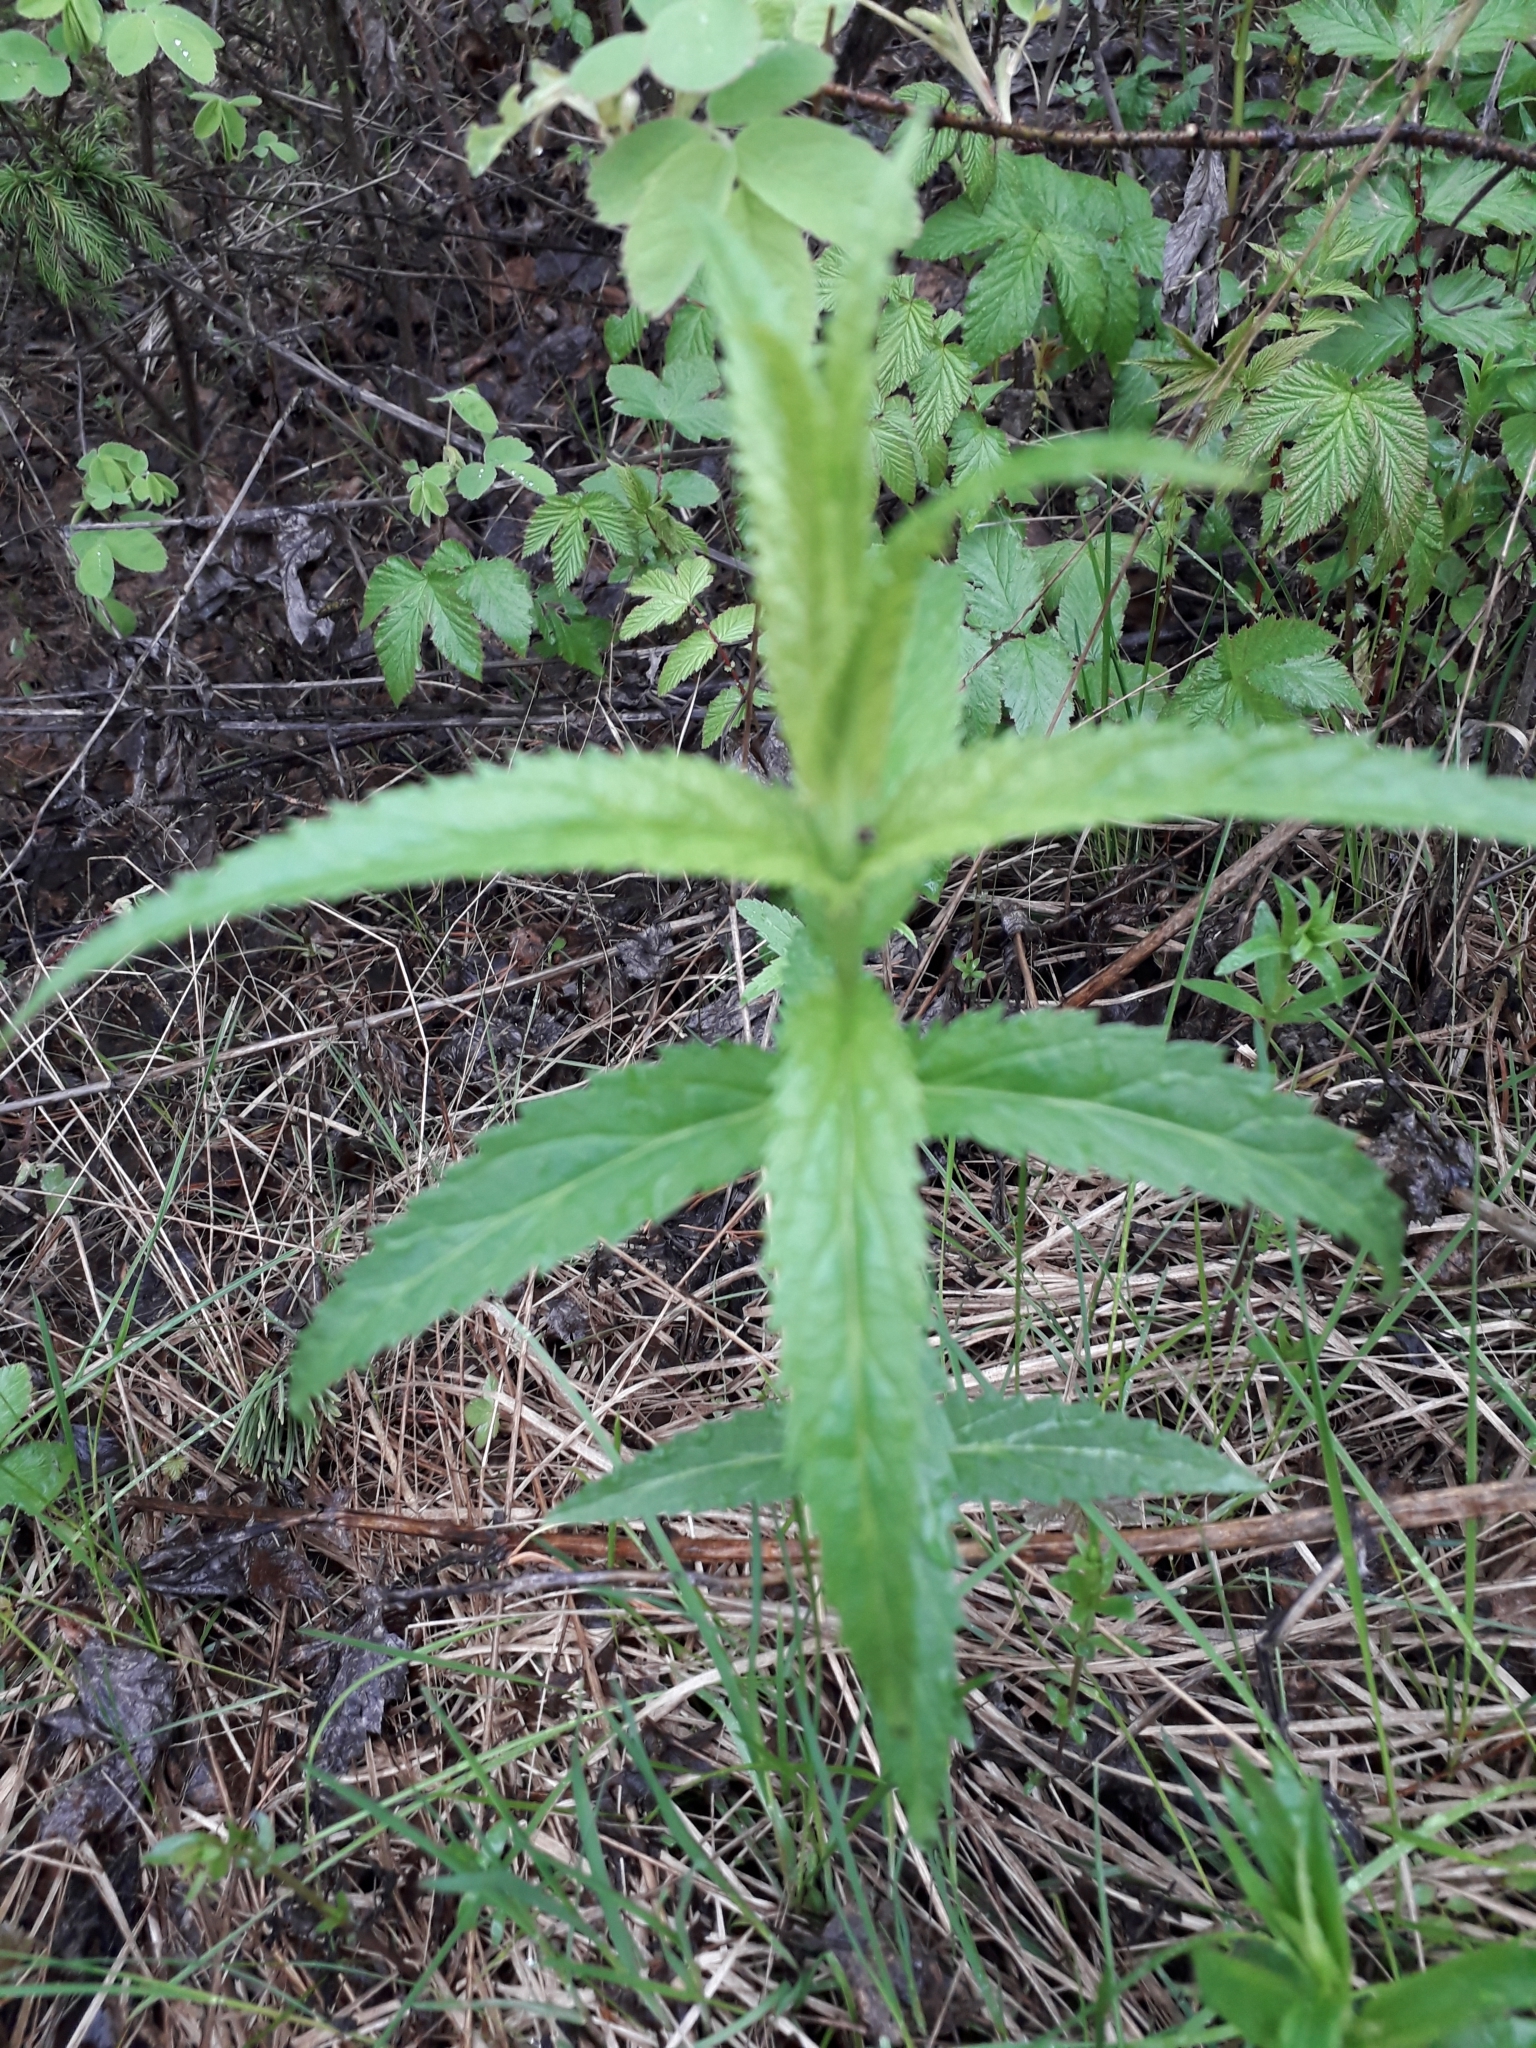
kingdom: Plantae
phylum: Tracheophyta
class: Magnoliopsida
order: Lamiales
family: Plantaginaceae
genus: Veronica
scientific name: Veronica longifolia
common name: Garden speedwell
